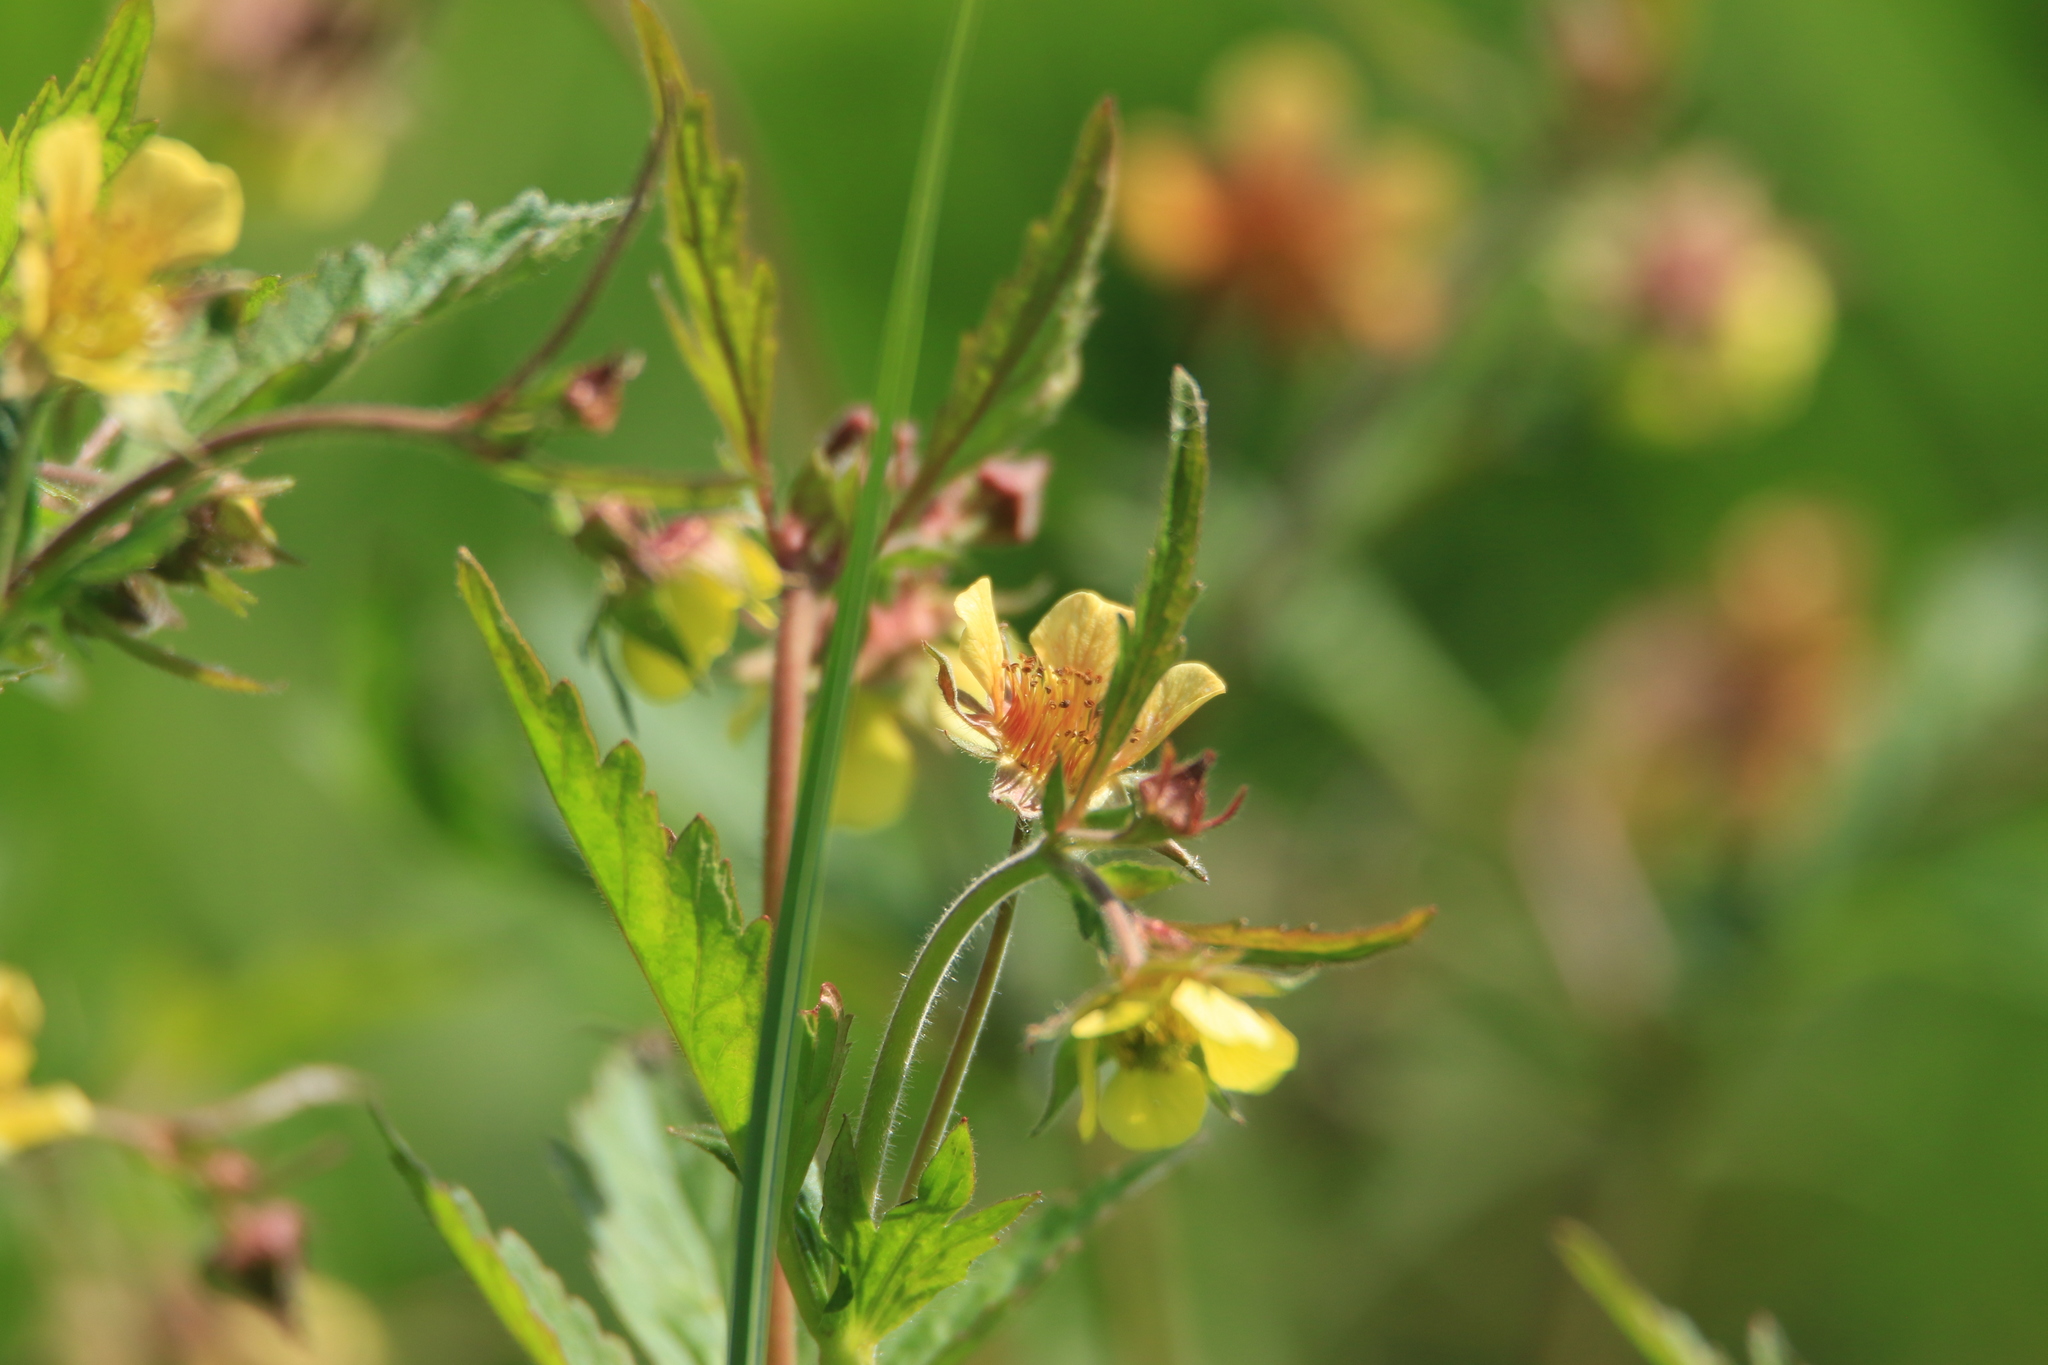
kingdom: Plantae
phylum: Tracheophyta
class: Magnoliopsida
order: Rosales
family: Rosaceae
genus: Geum
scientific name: Geum aurantiacum
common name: Orange avens
